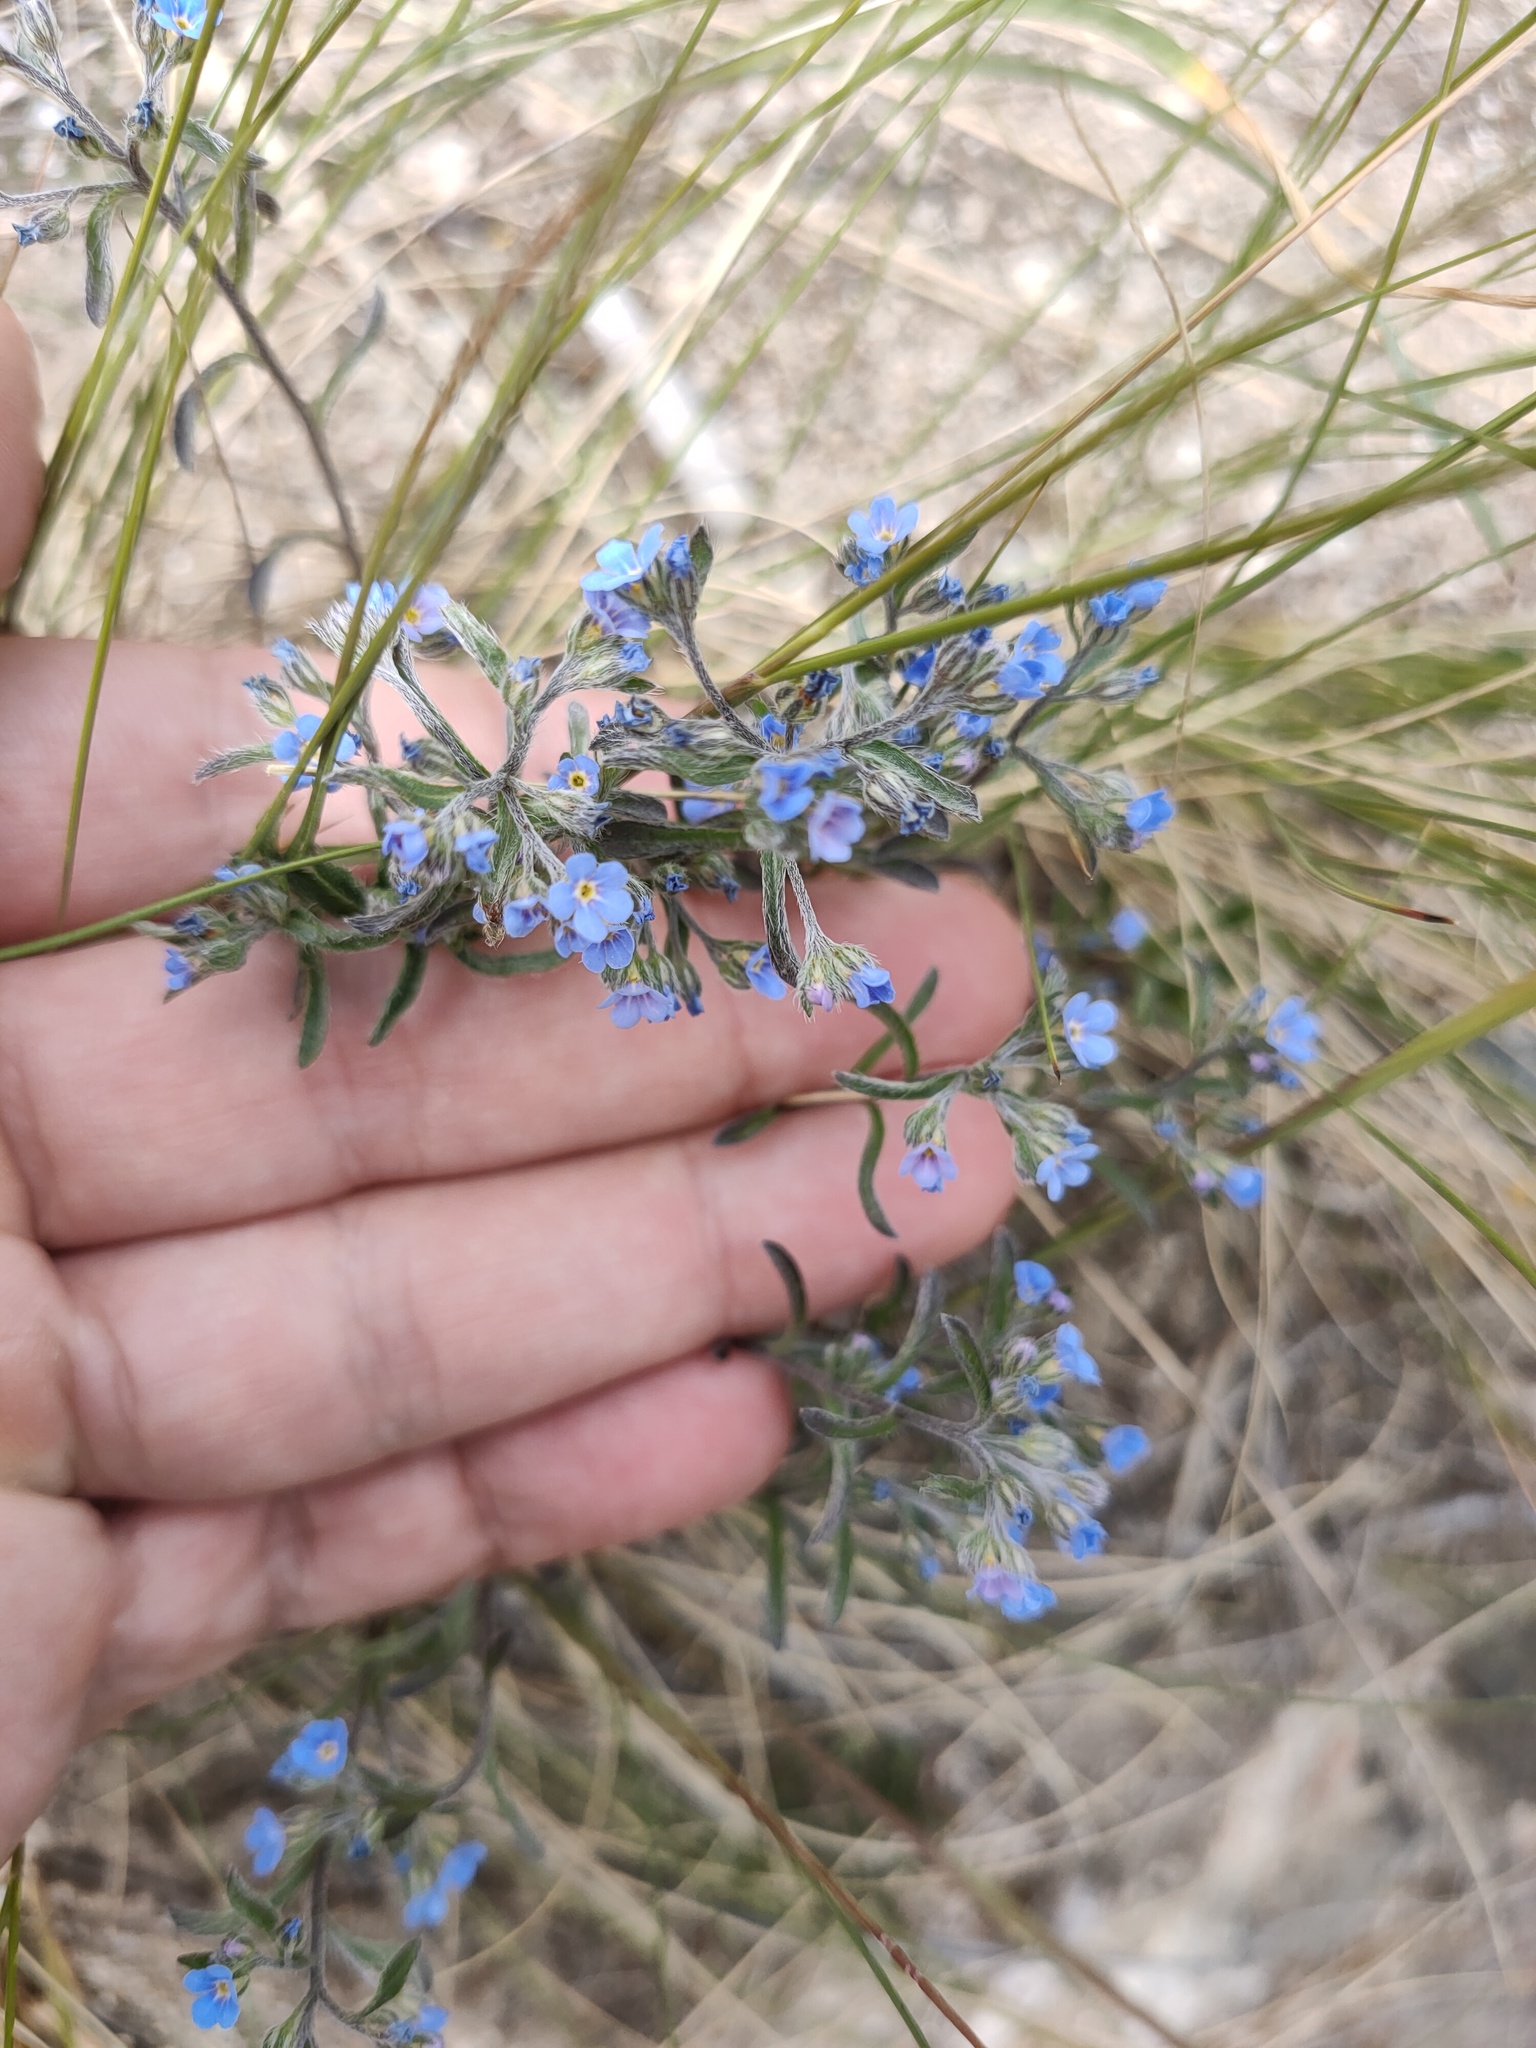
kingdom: Plantae
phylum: Tracheophyta
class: Magnoliopsida
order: Boraginales
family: Boraginaceae
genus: Eritrichium
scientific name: Eritrichium rupestre
